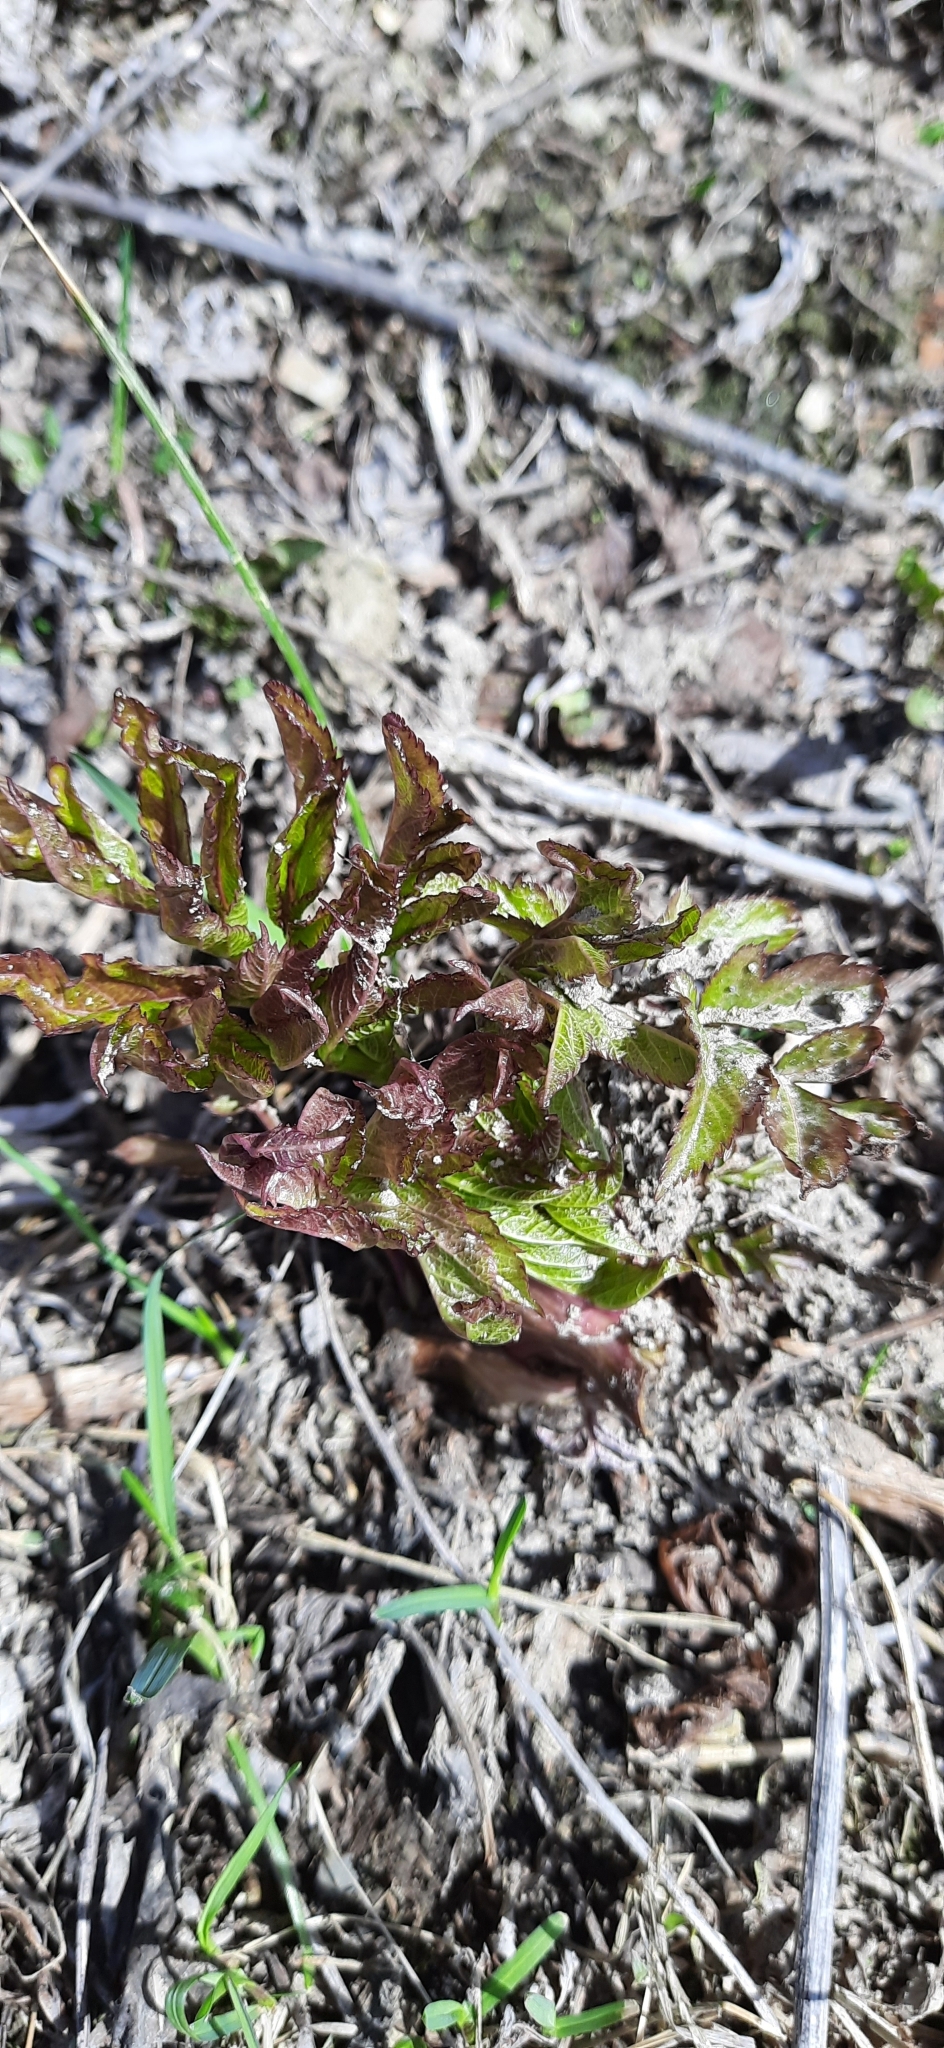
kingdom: Plantae
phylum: Tracheophyta
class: Magnoliopsida
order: Apiales
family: Apiaceae
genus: Angelica
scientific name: Angelica decurrens
